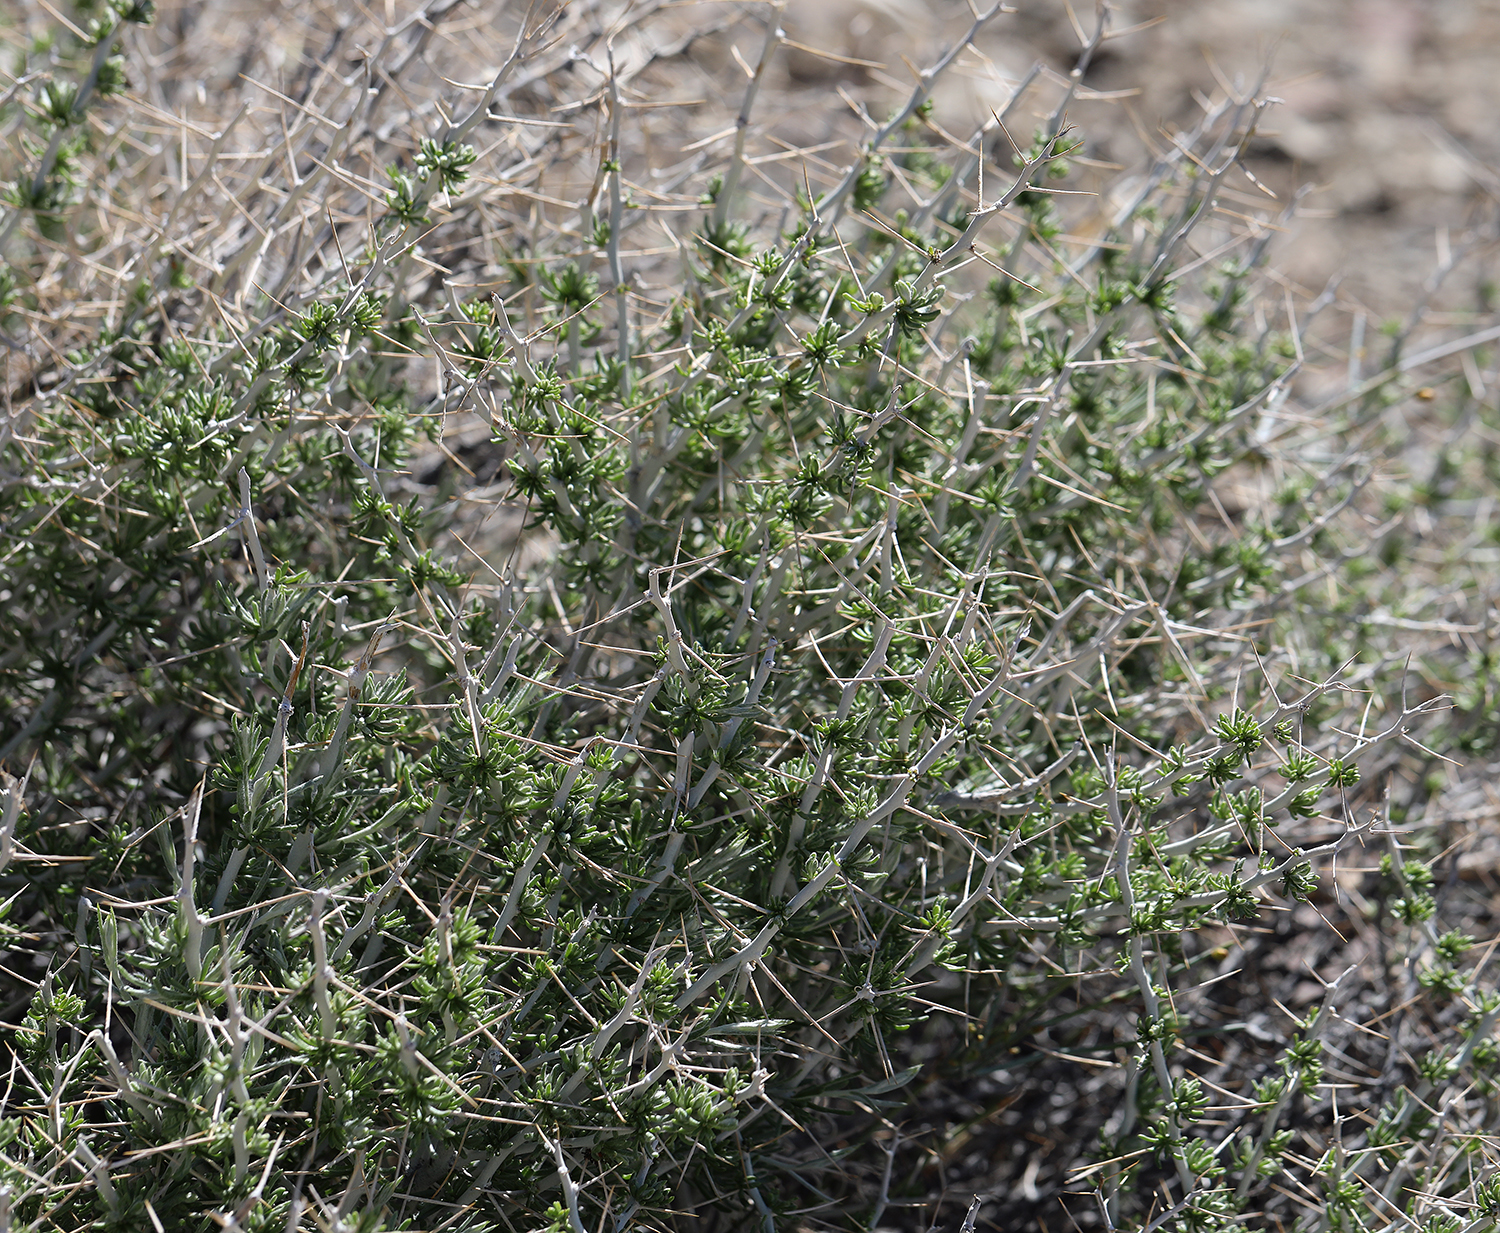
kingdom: Plantae
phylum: Tracheophyta
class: Magnoliopsida
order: Asterales
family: Asteraceae
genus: Tetradymia
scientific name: Tetradymia axillaris
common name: Long-spine horsebrush
